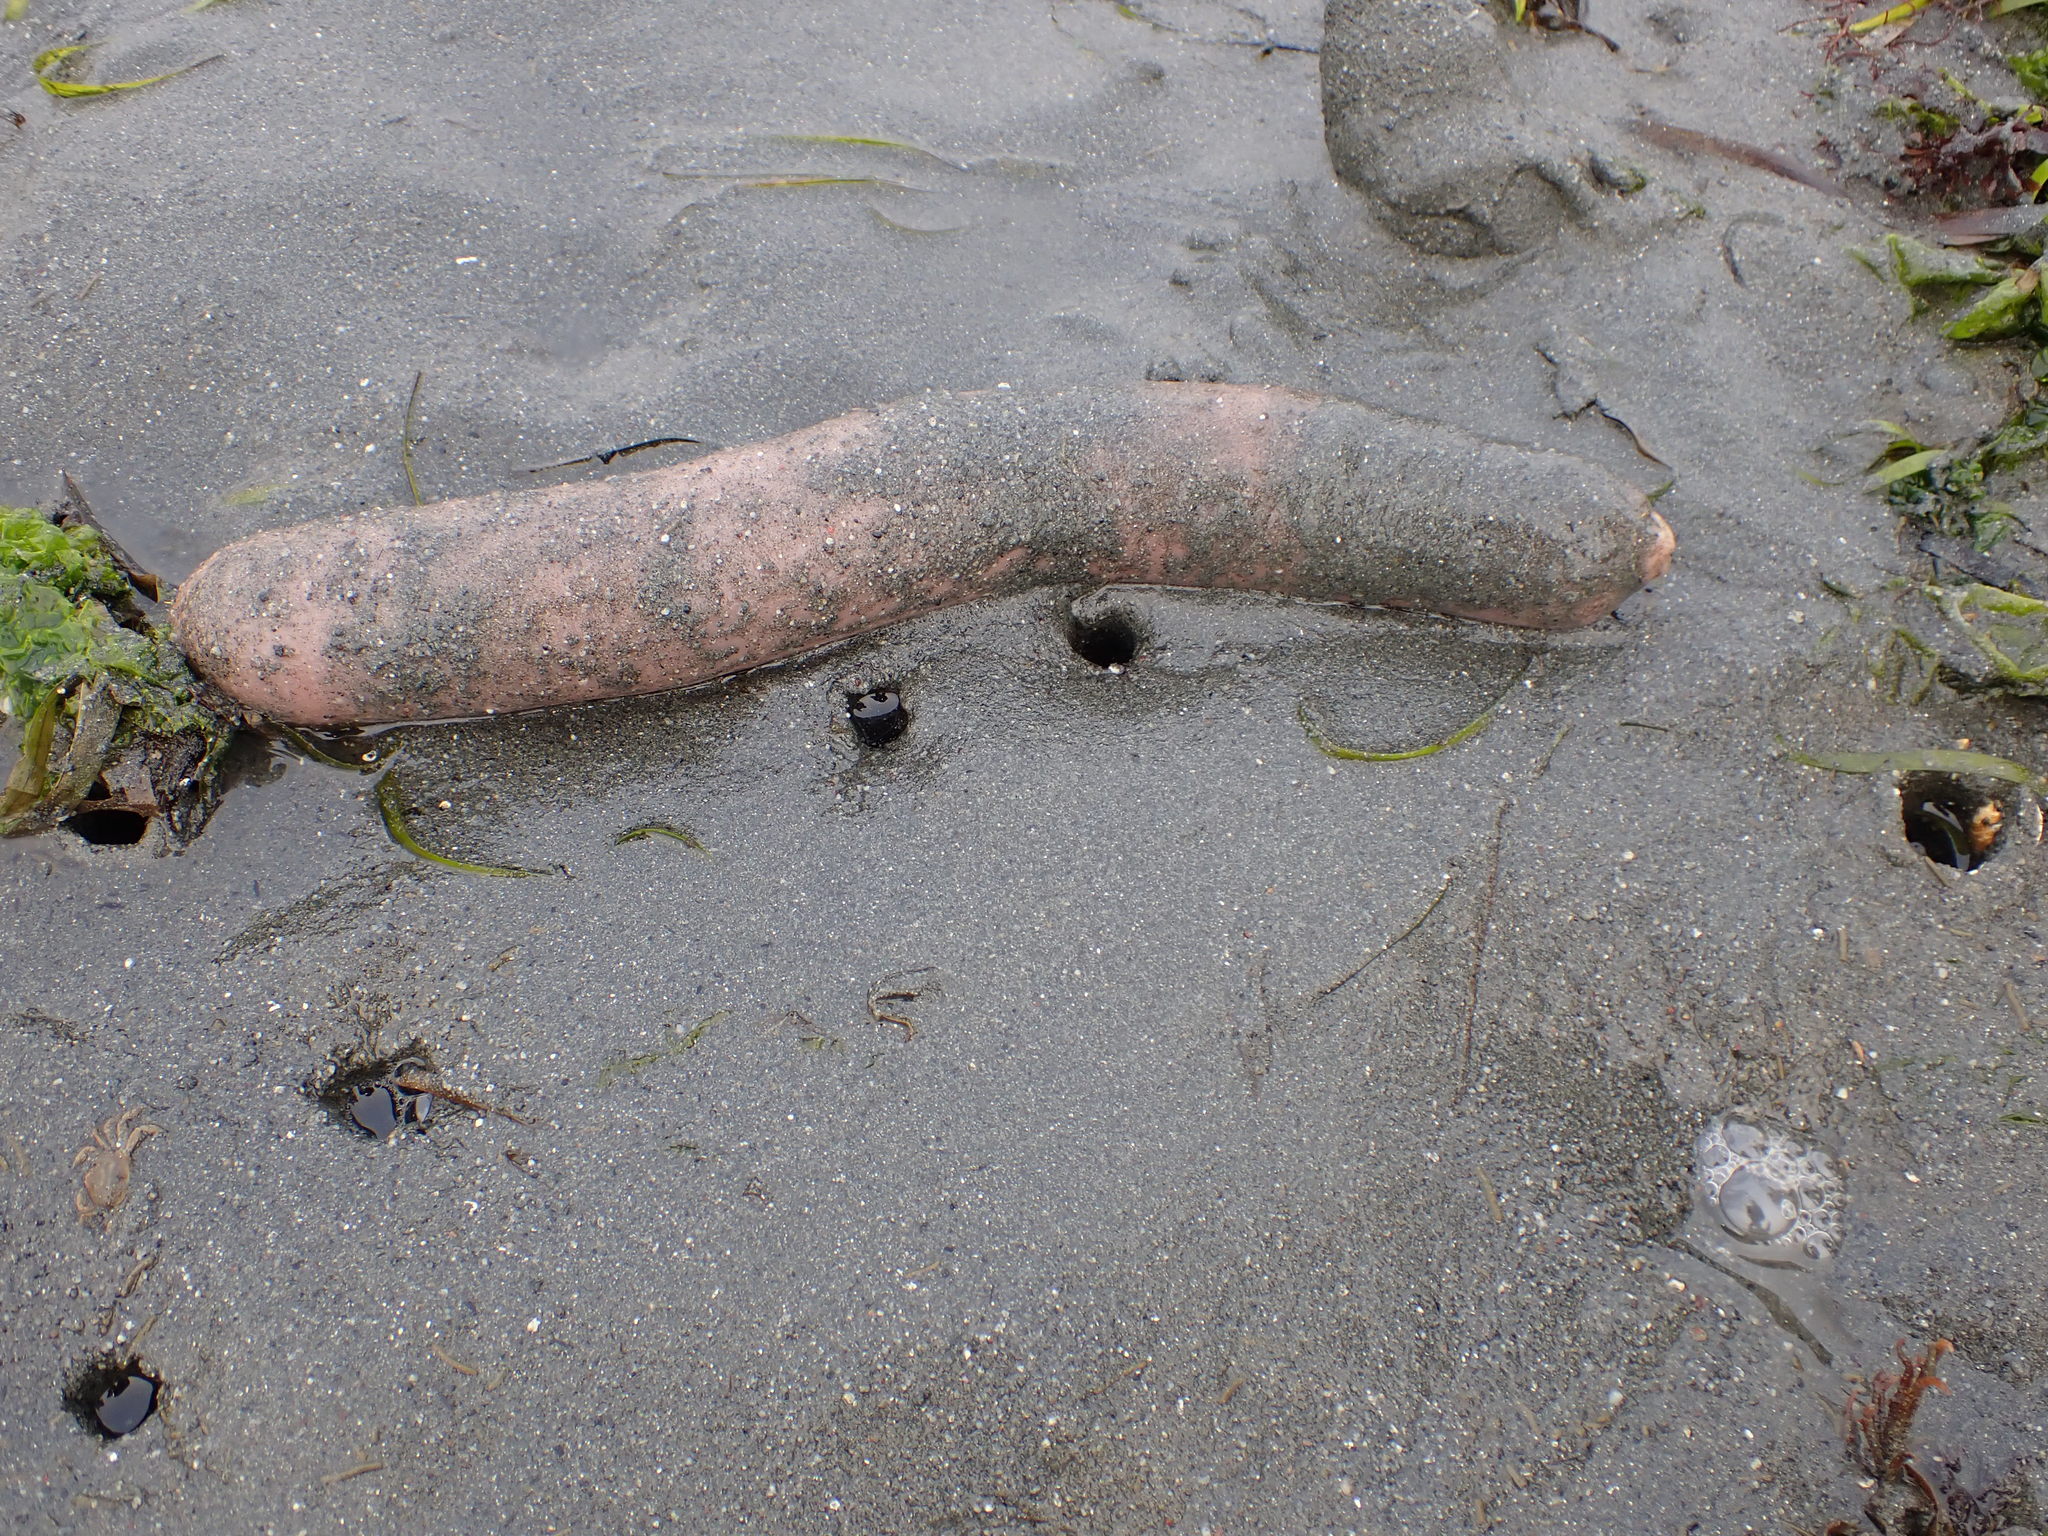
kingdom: Animalia
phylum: Annelida
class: Polychaeta
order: Echiuroidea
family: Urechidae
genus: Urechis
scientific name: Urechis caupo
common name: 'penis fish' or 'penis worm'
